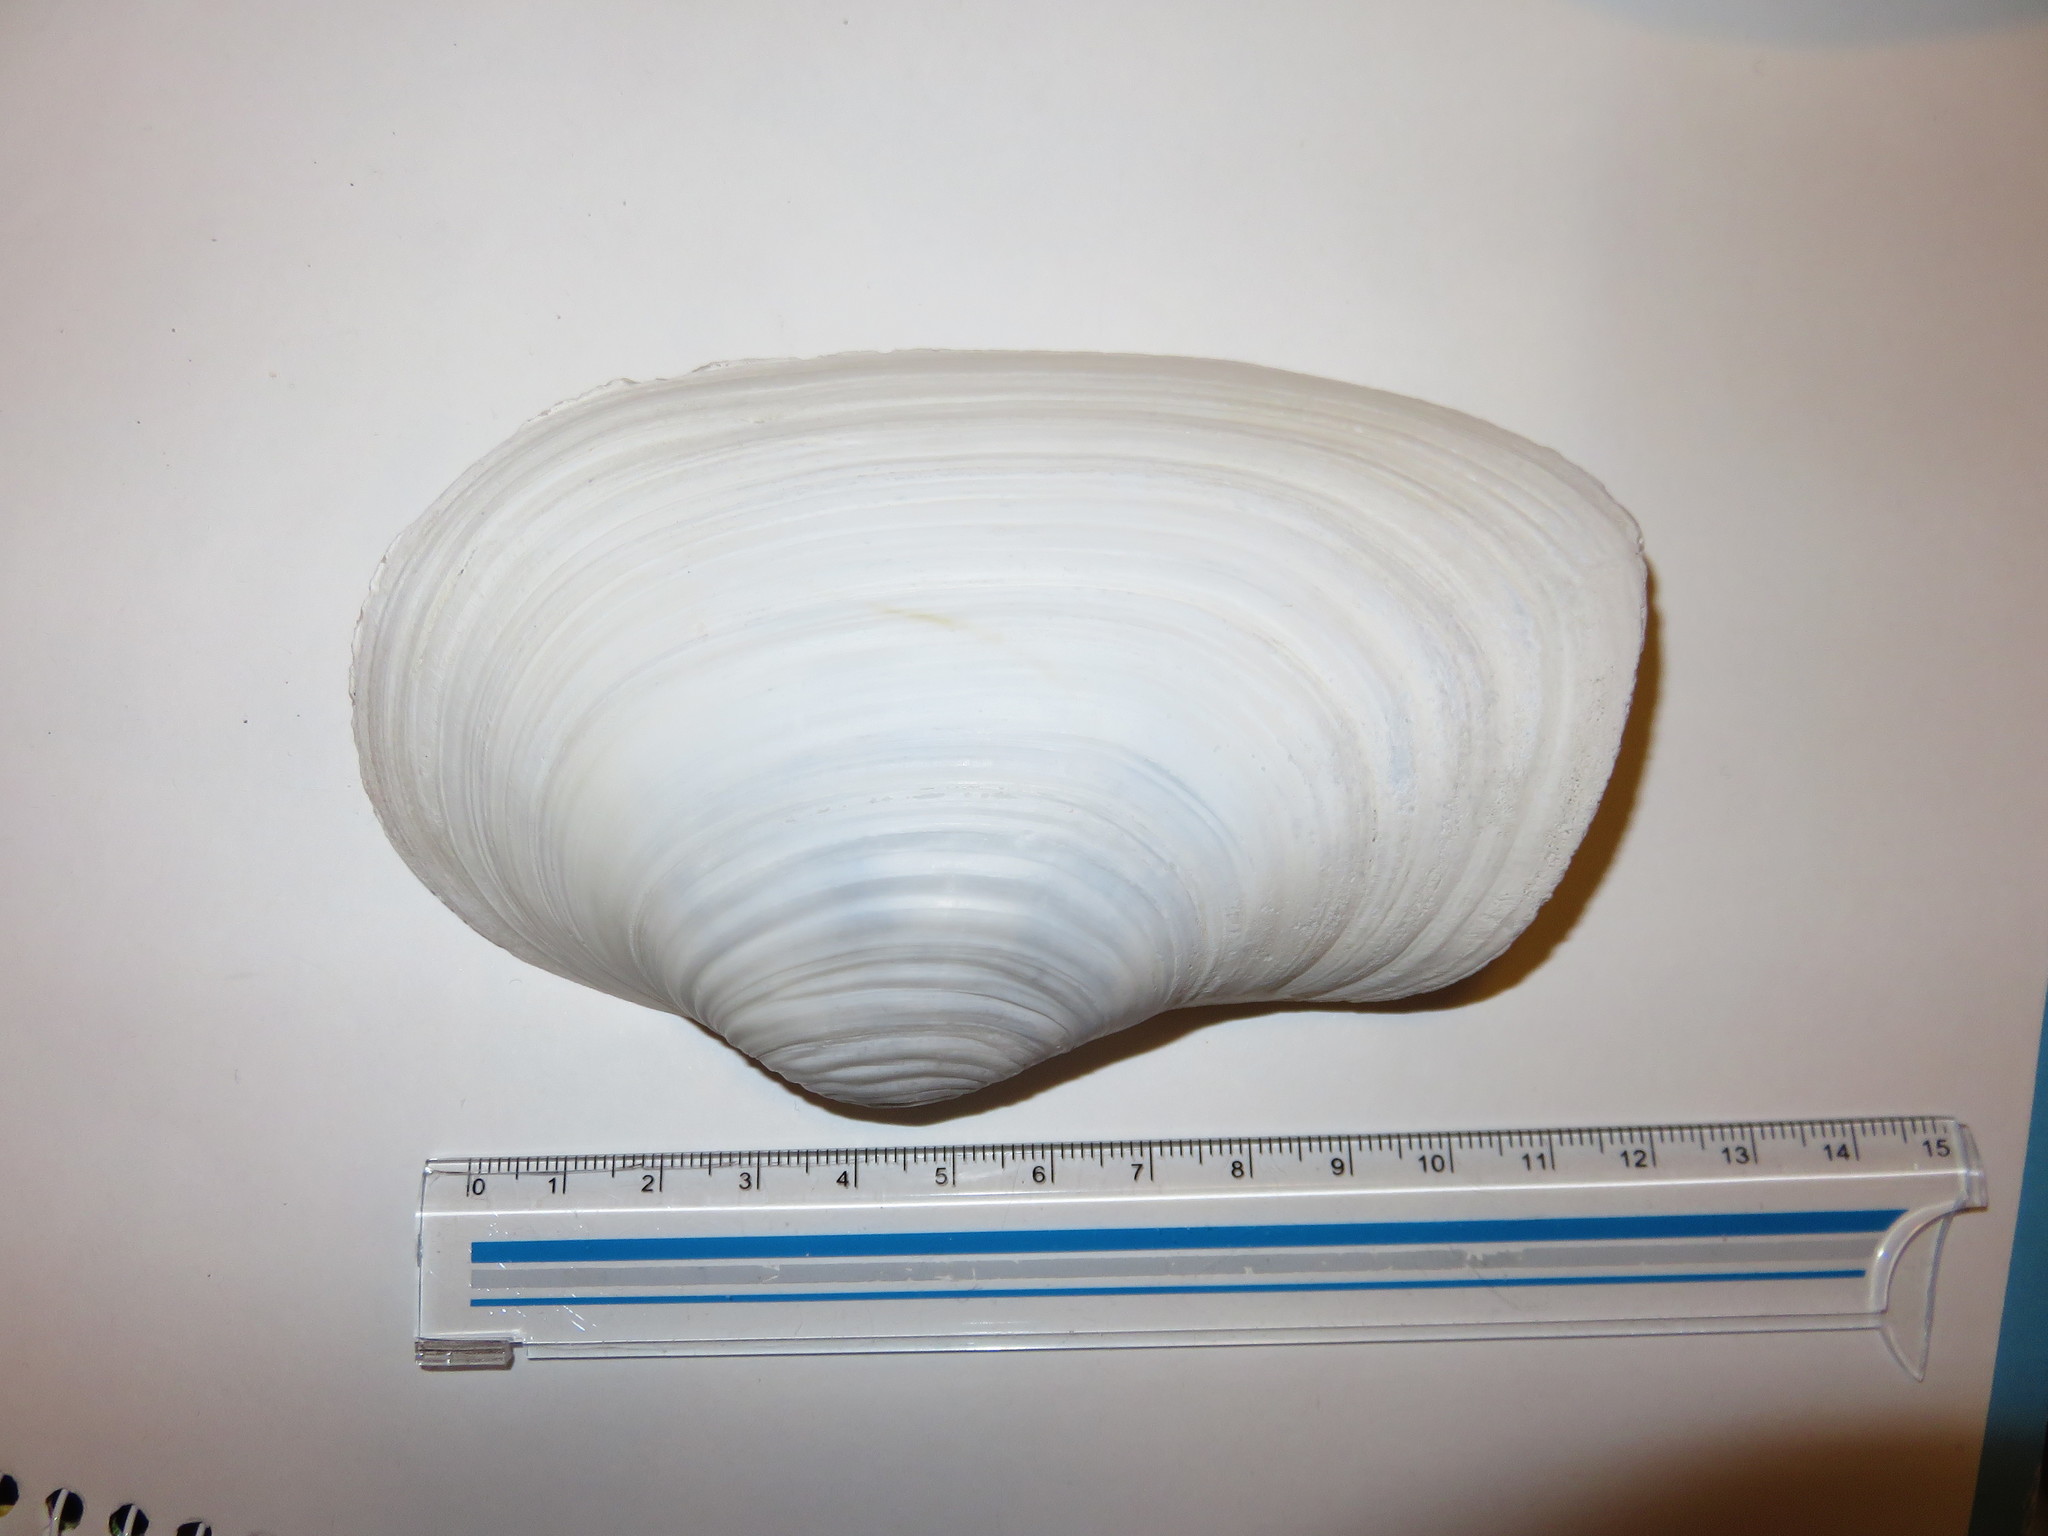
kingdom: Animalia
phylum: Mollusca
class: Bivalvia
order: Adapedonta
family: Hiatellidae
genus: Panopea
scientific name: Panopea japonica
